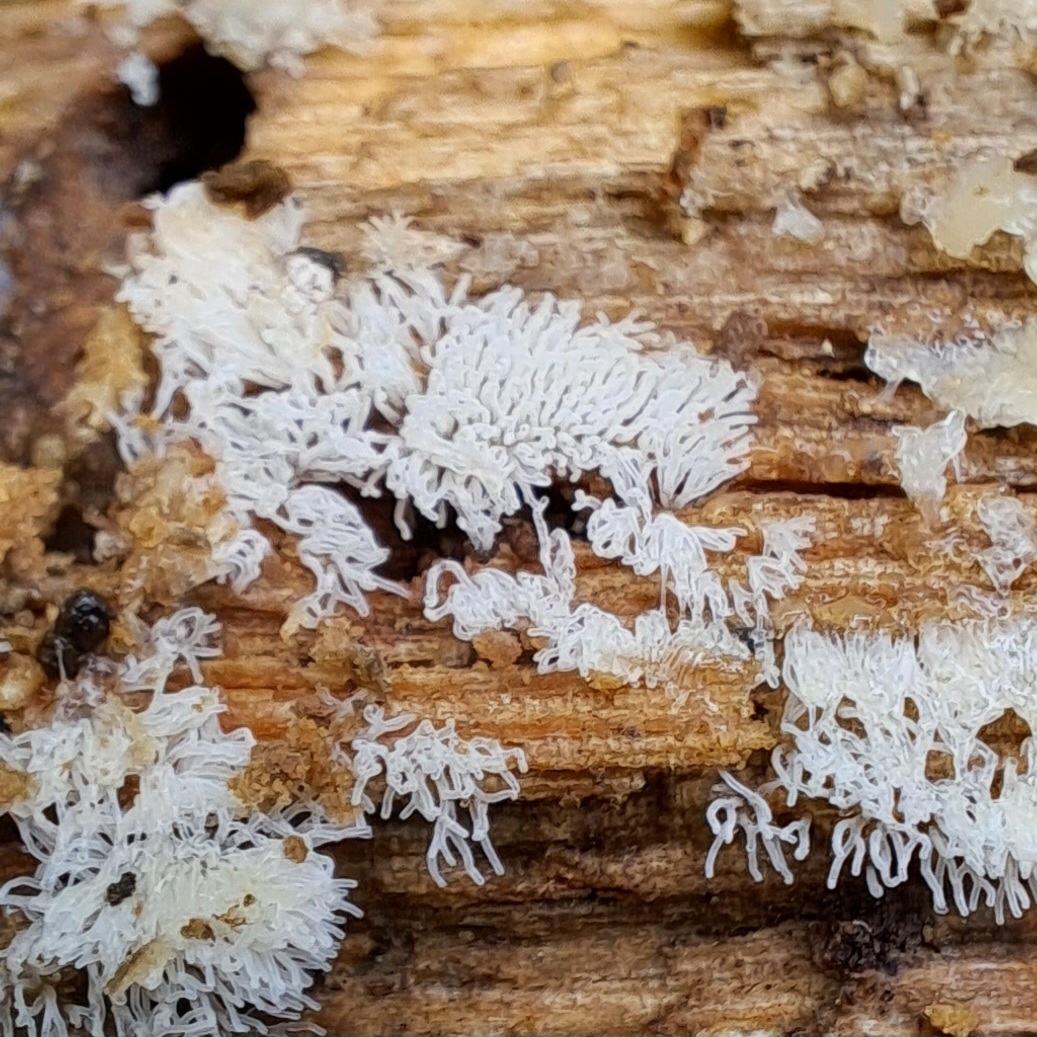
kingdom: Protozoa
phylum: Mycetozoa
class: Protosteliomycetes
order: Ceratiomyxales
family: Ceratiomyxaceae
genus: Ceratiomyxa
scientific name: Ceratiomyxa fruticulosa
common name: Honeycomb coral slime mold
